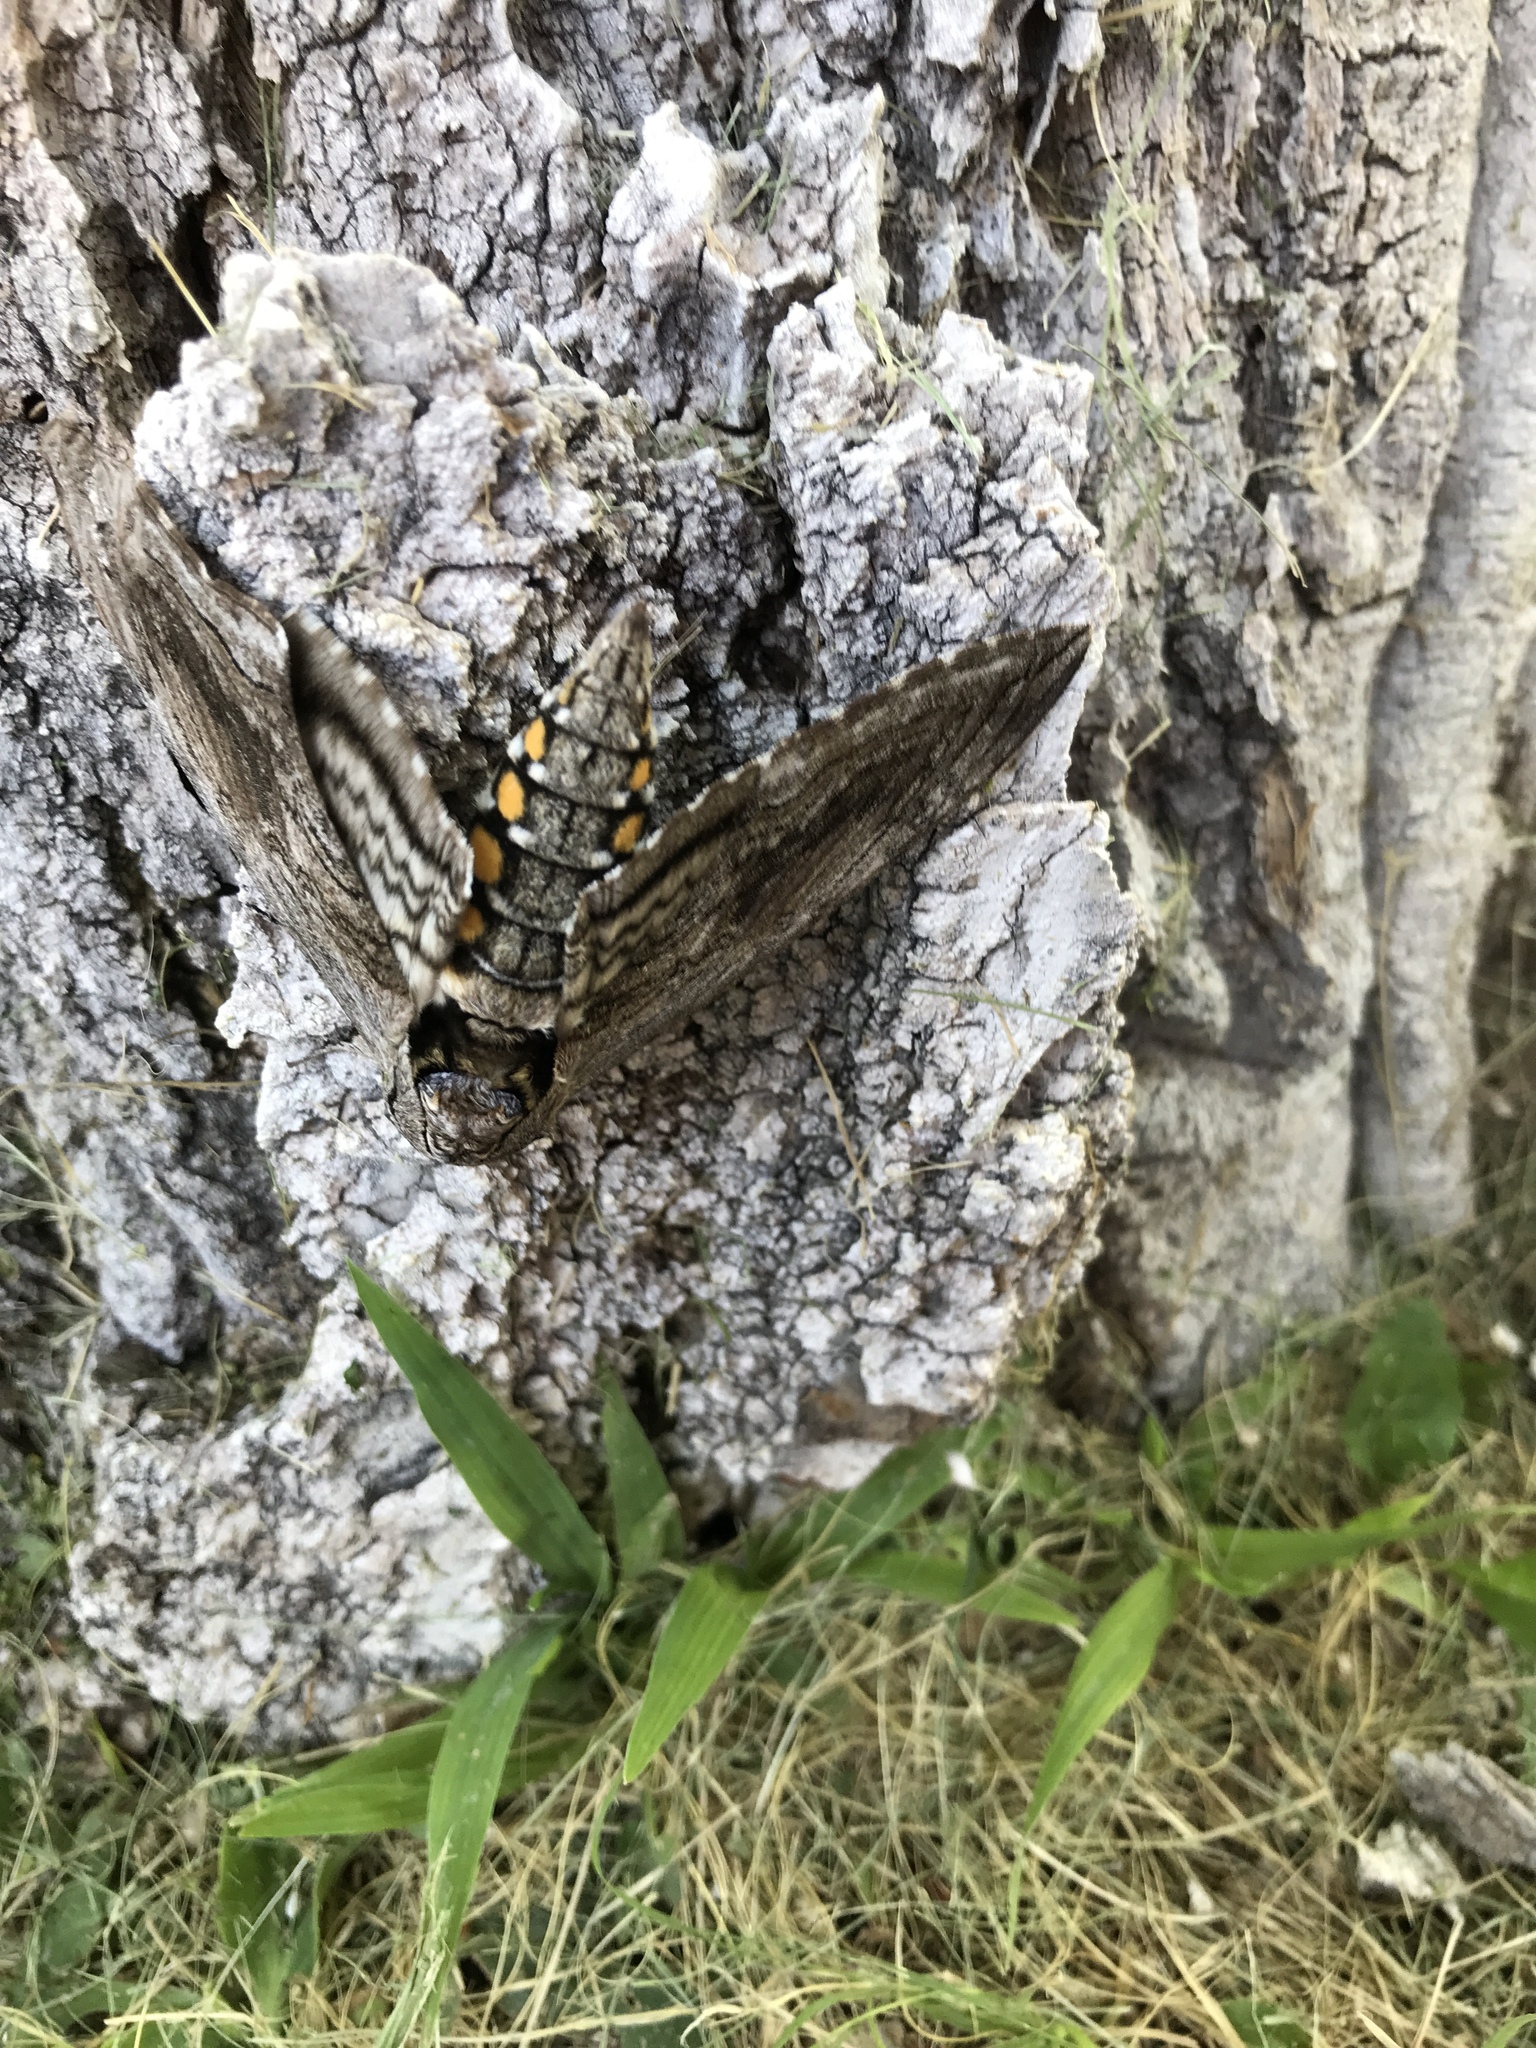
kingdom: Animalia
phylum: Arthropoda
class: Insecta
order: Lepidoptera
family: Sphingidae
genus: Manduca
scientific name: Manduca quinquemaculatus
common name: Five-spotted hawk-moth
